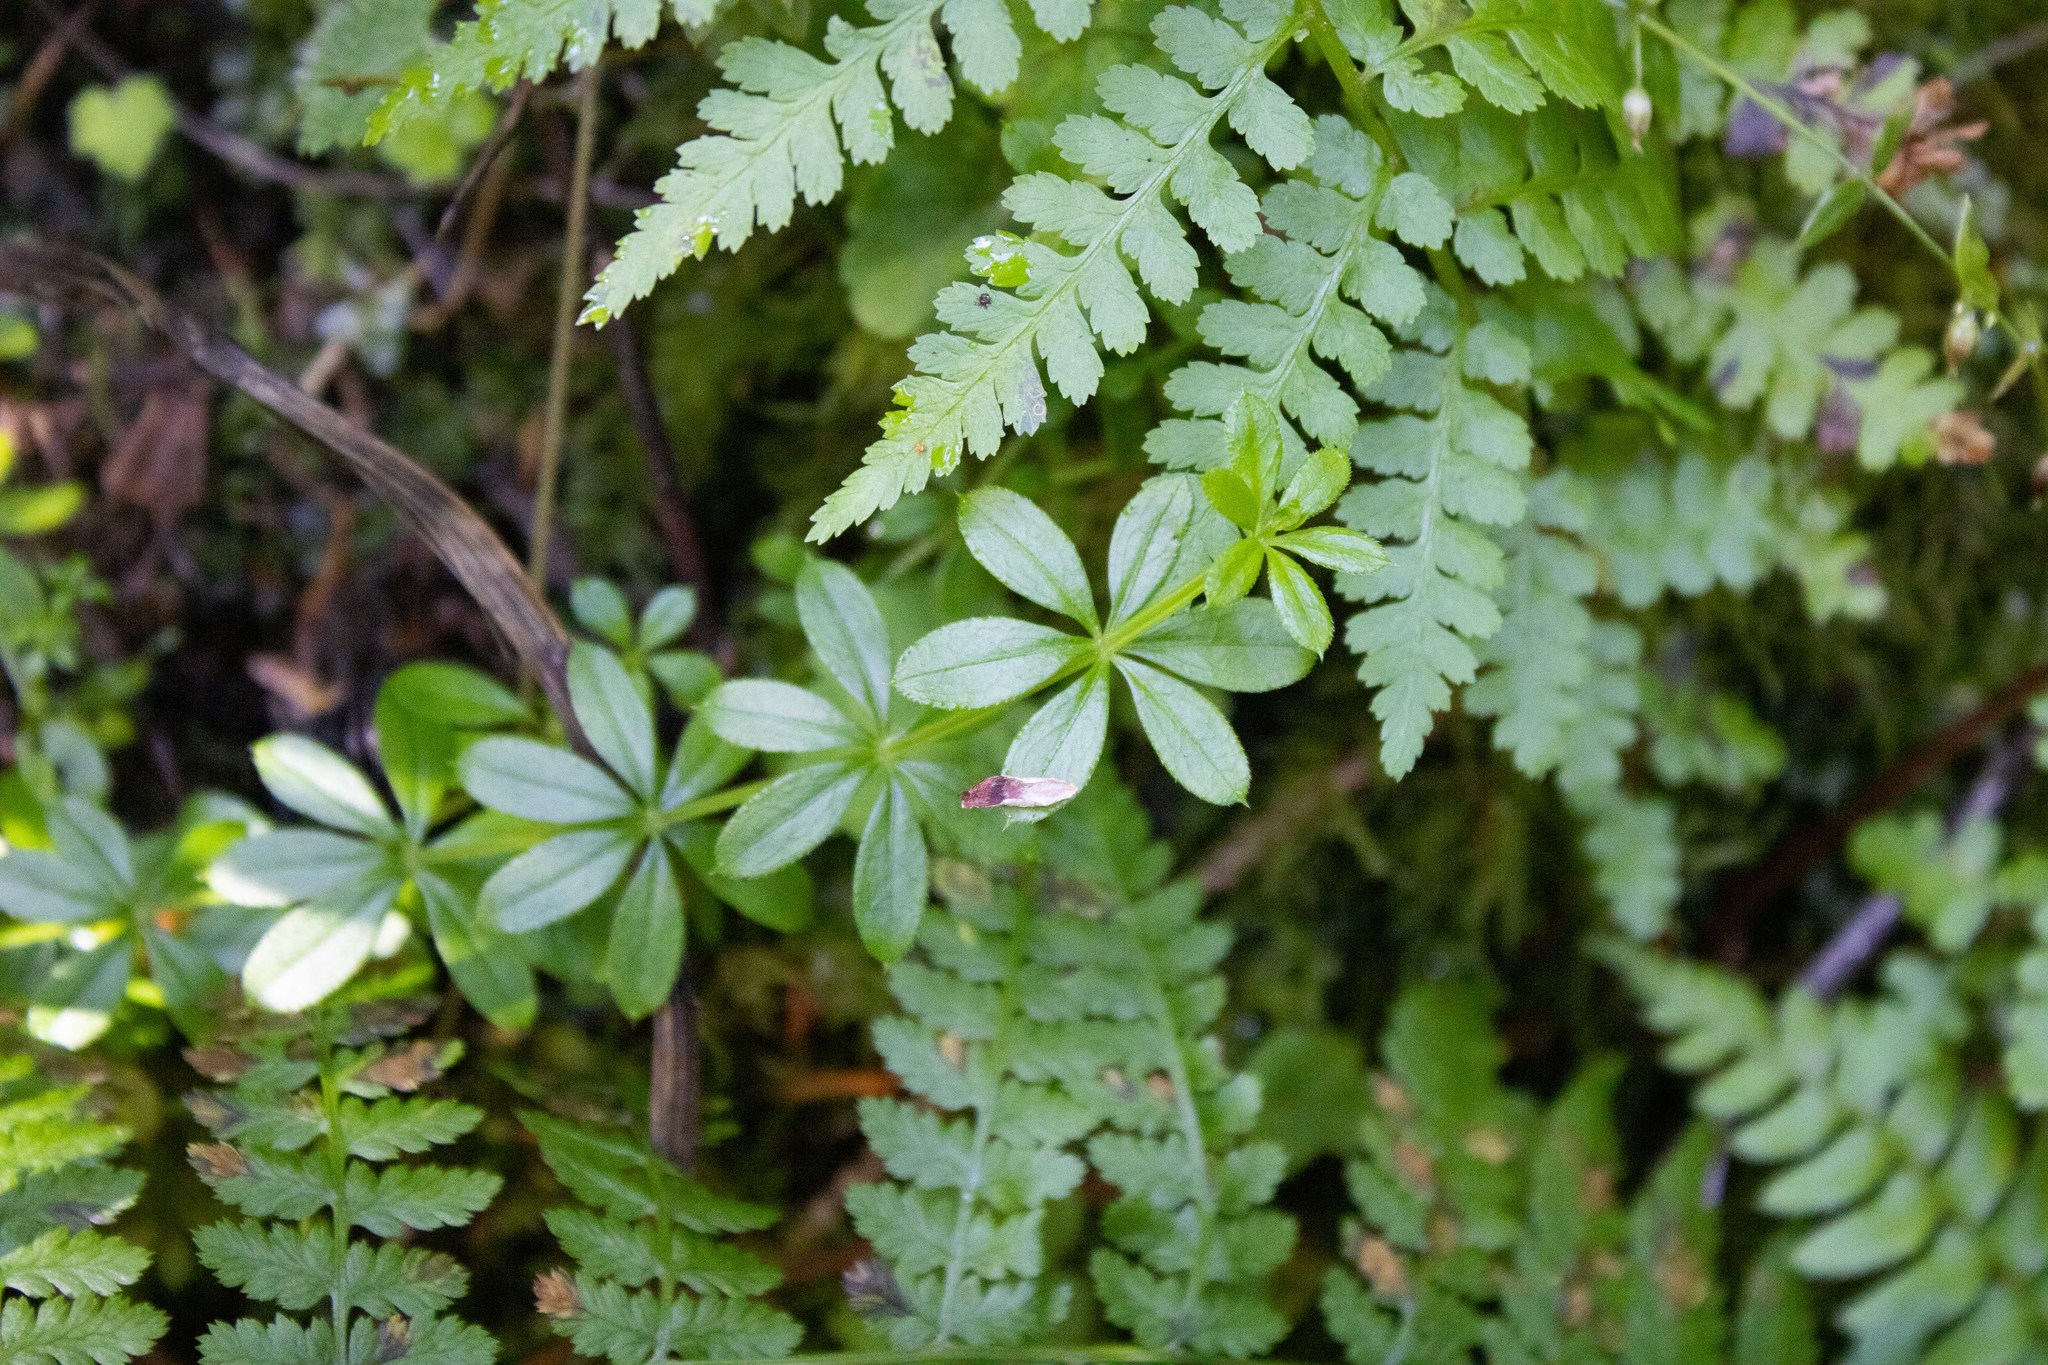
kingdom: Plantae
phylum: Tracheophyta
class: Magnoliopsida
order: Gentianales
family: Rubiaceae
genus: Galium
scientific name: Galium triflorum
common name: Fragrant bedstraw
